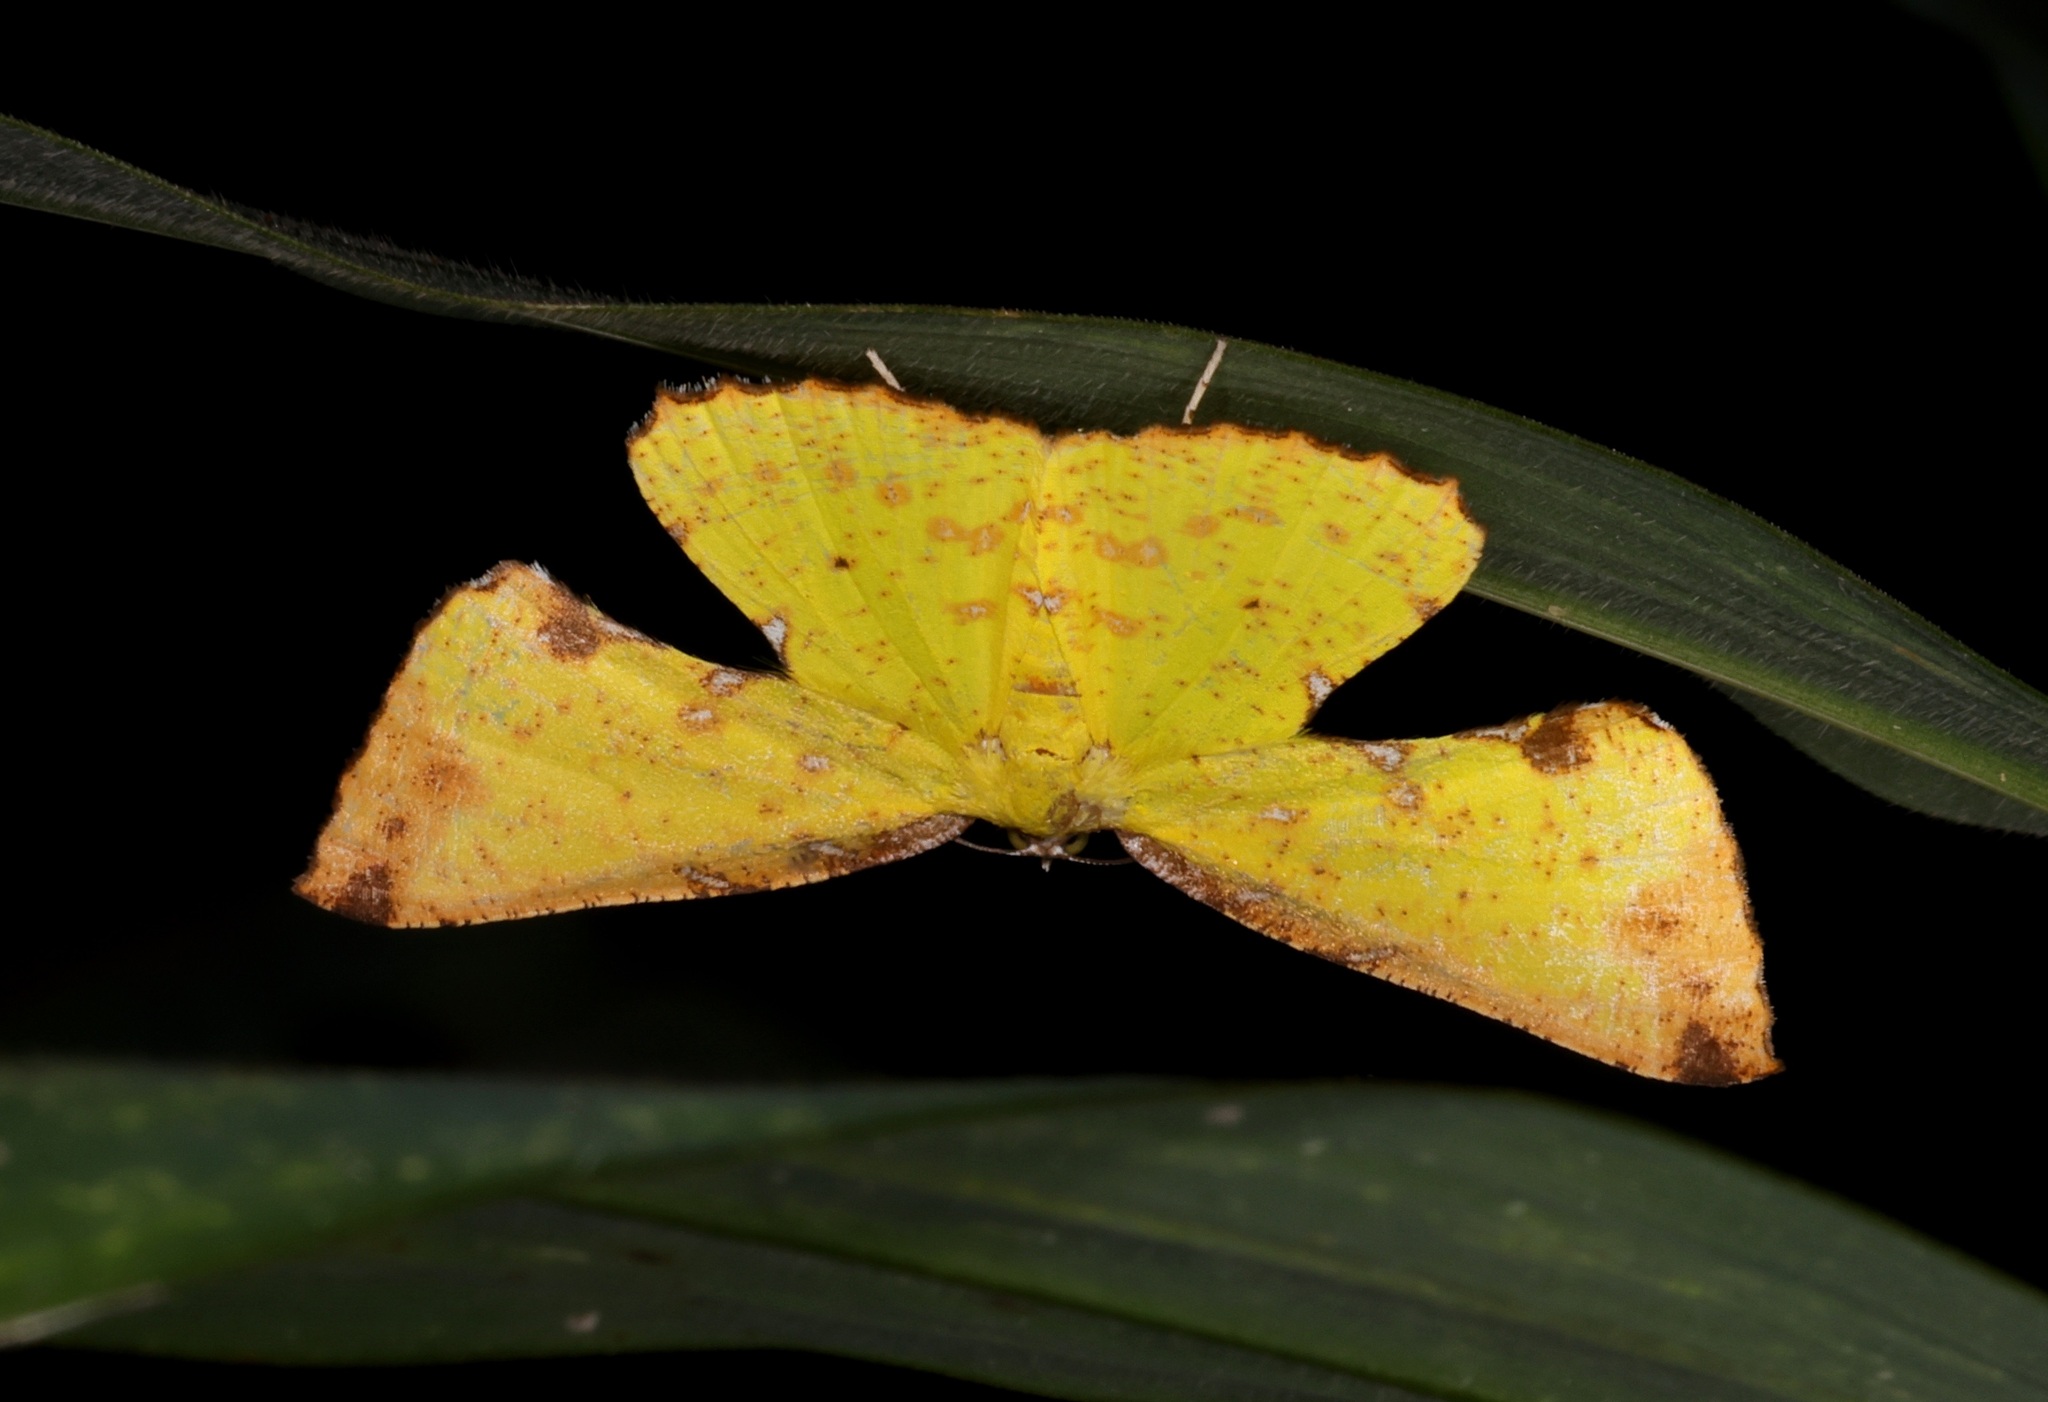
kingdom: Animalia
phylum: Arthropoda
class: Insecta
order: Lepidoptera
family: Geometridae
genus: Corymica
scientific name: Corymica arnearia
